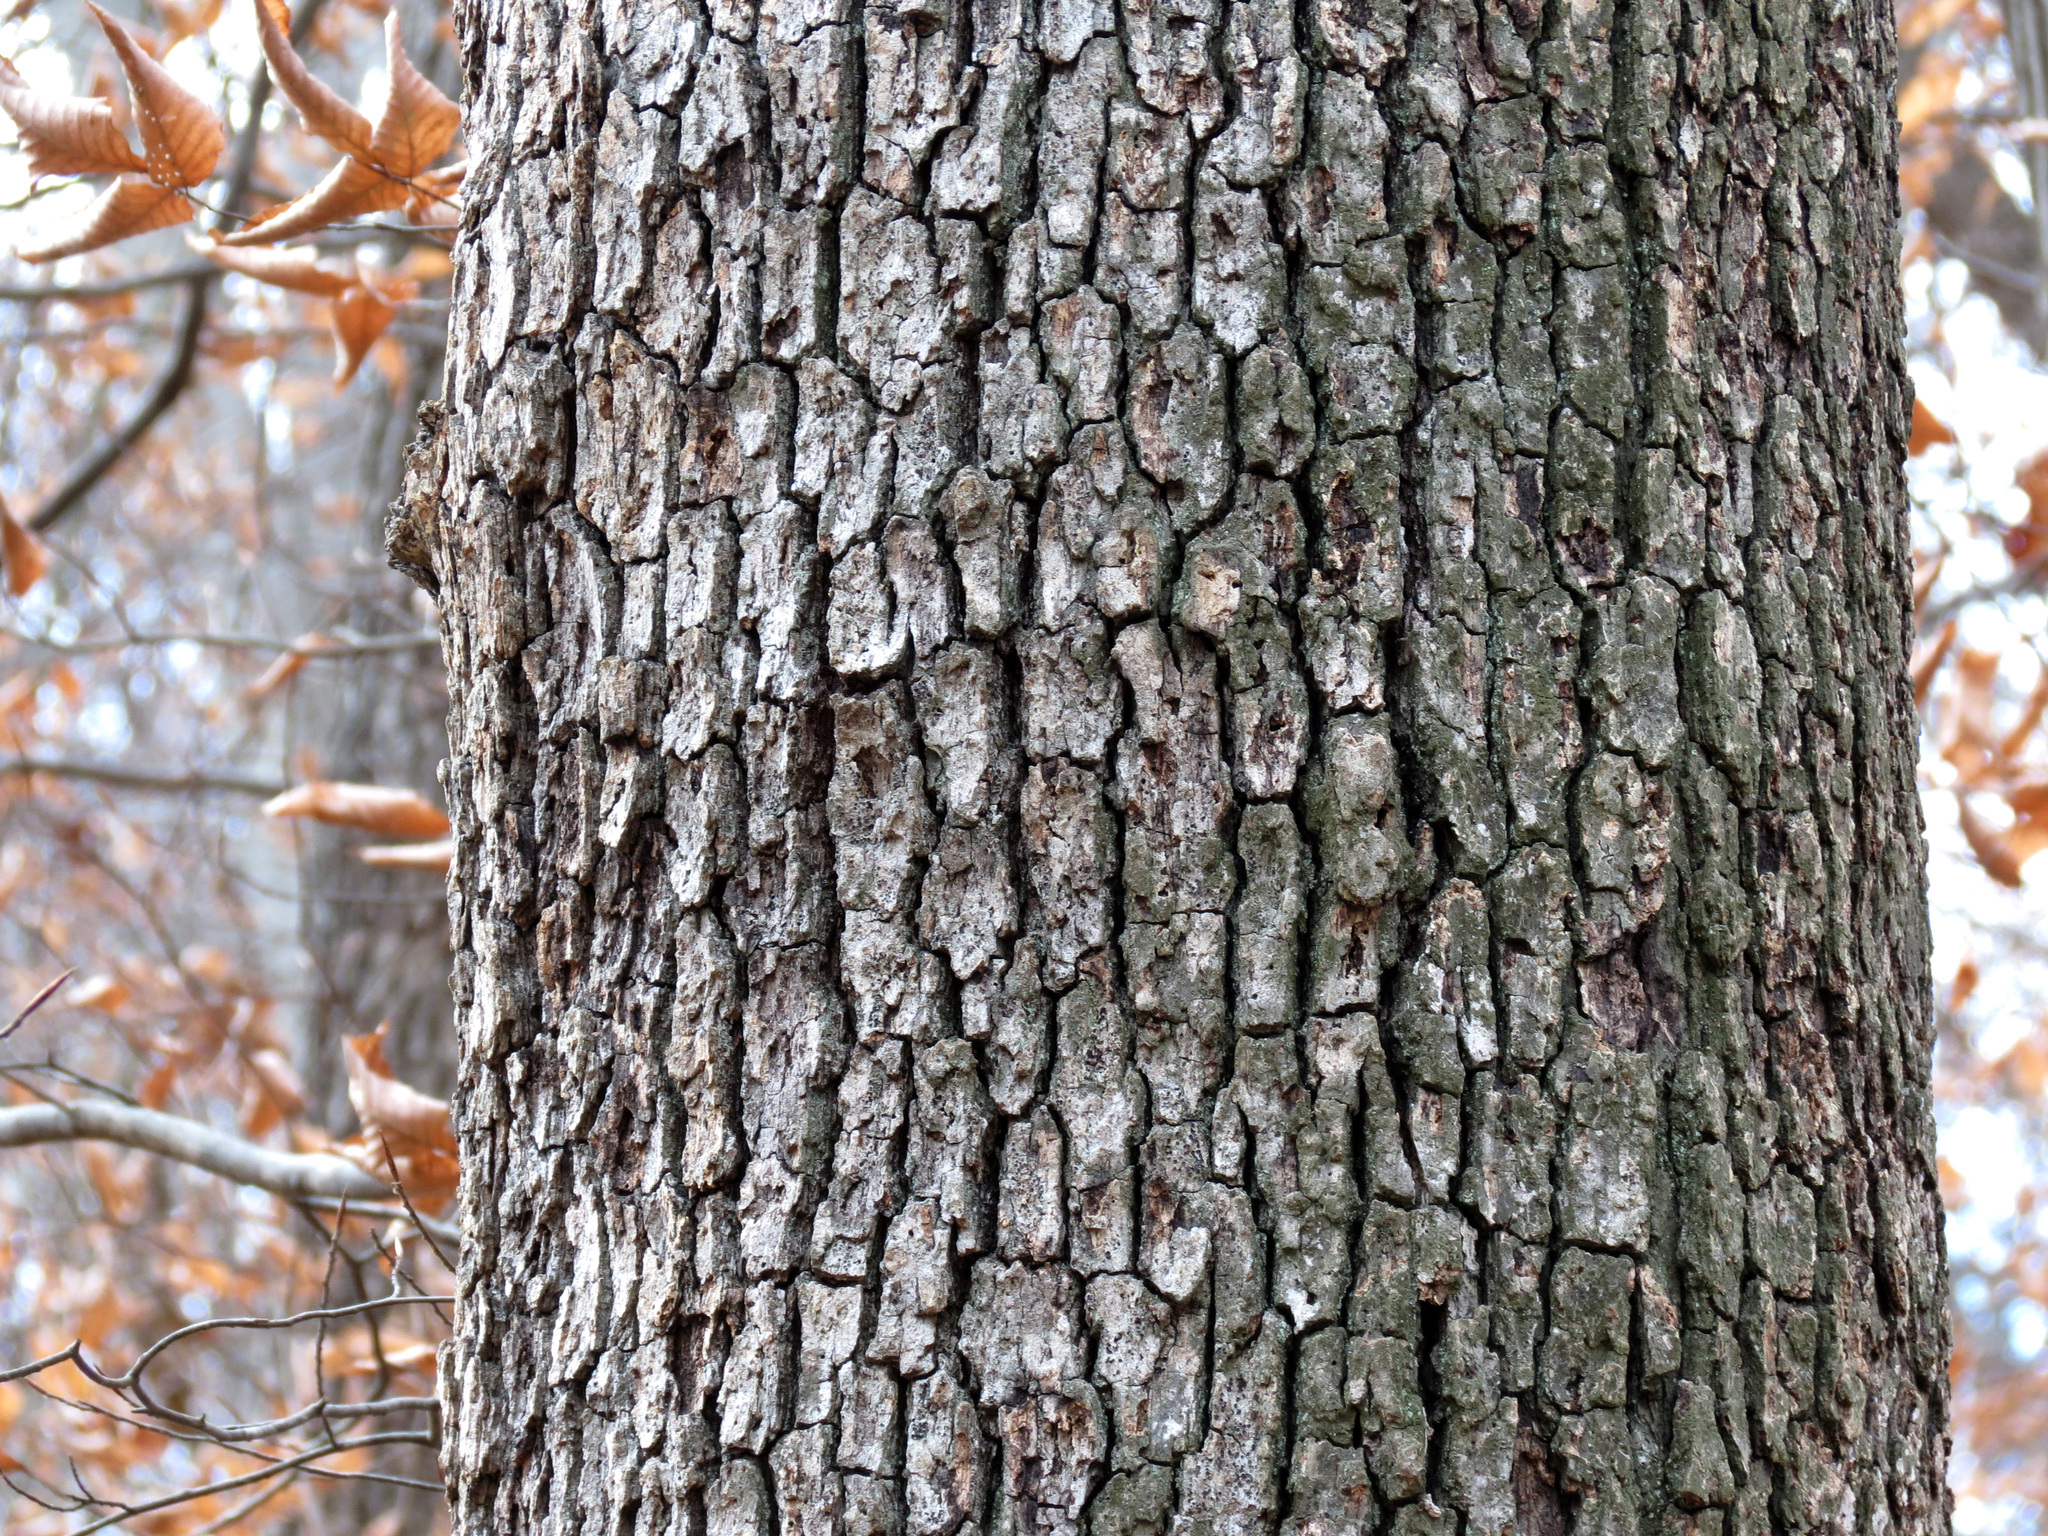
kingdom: Plantae
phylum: Tracheophyta
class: Magnoliopsida
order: Fagales
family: Fagaceae
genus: Quercus
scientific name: Quercus alba
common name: White oak
